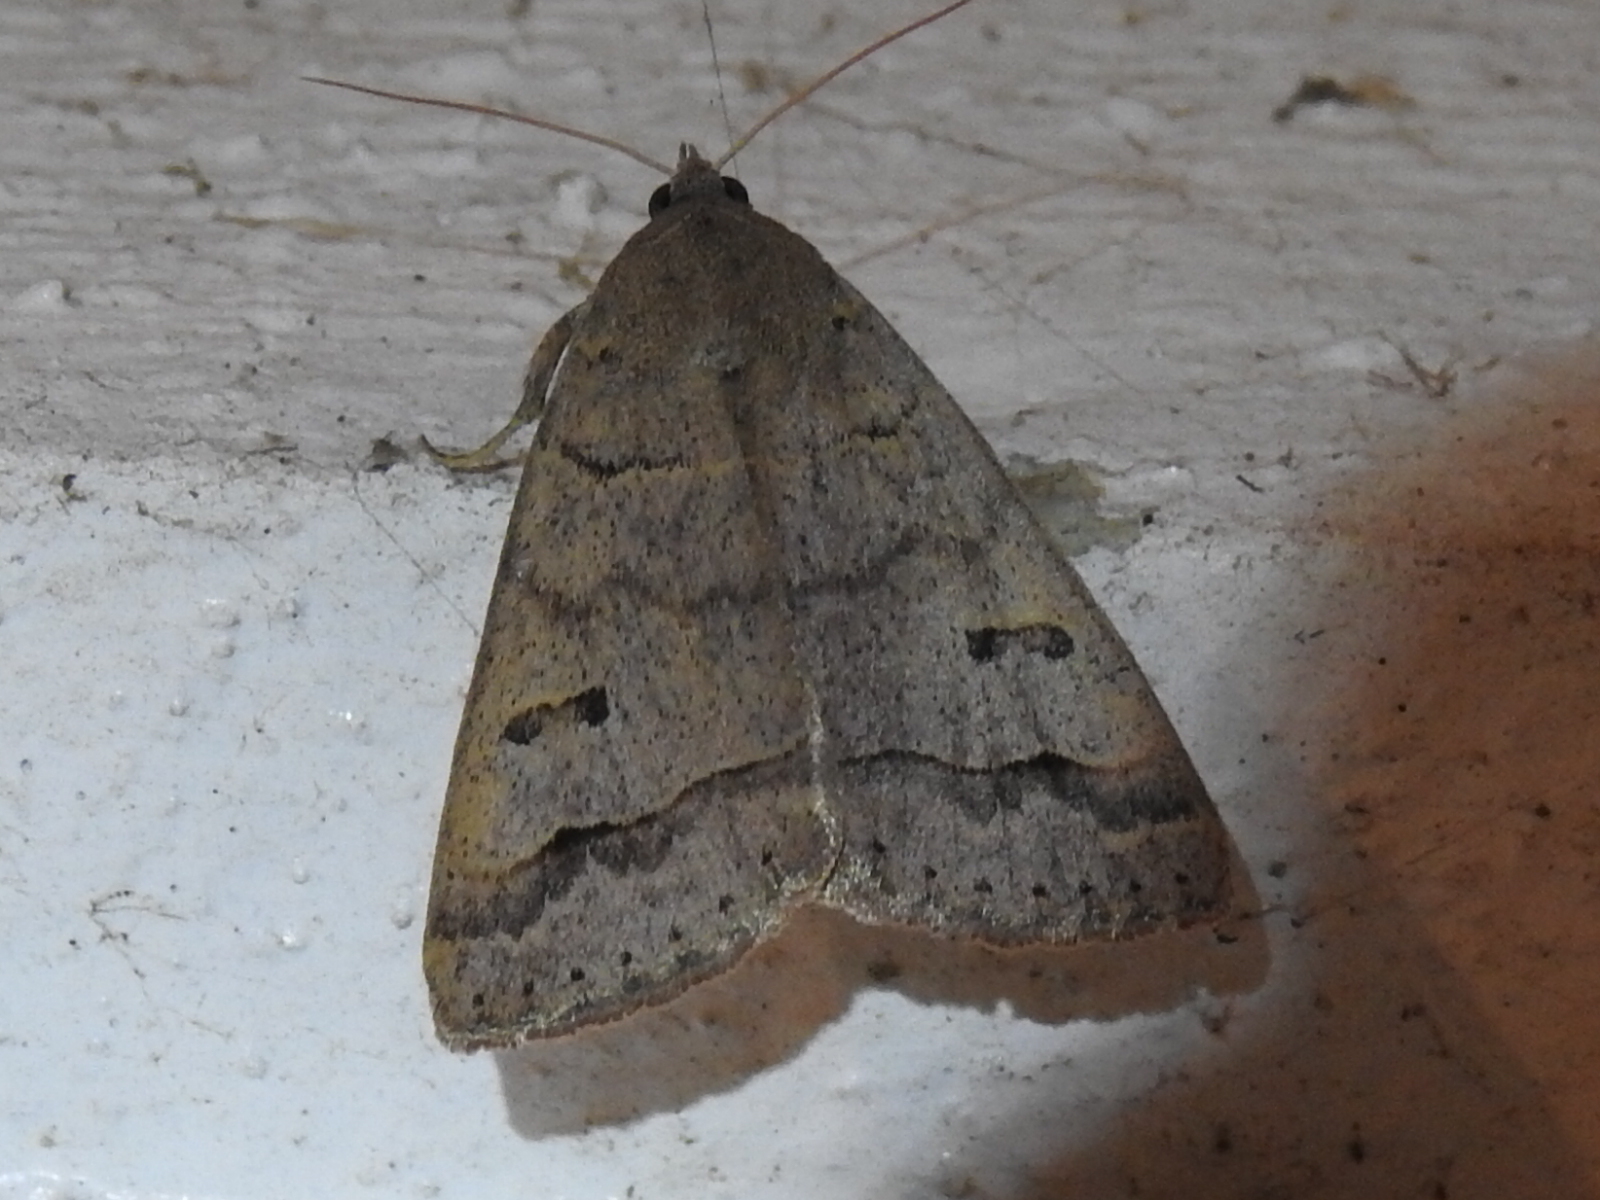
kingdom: Animalia
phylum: Arthropoda
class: Insecta
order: Lepidoptera
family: Erebidae
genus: Phoberia
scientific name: Phoberia atomaris
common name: Common oak moth
